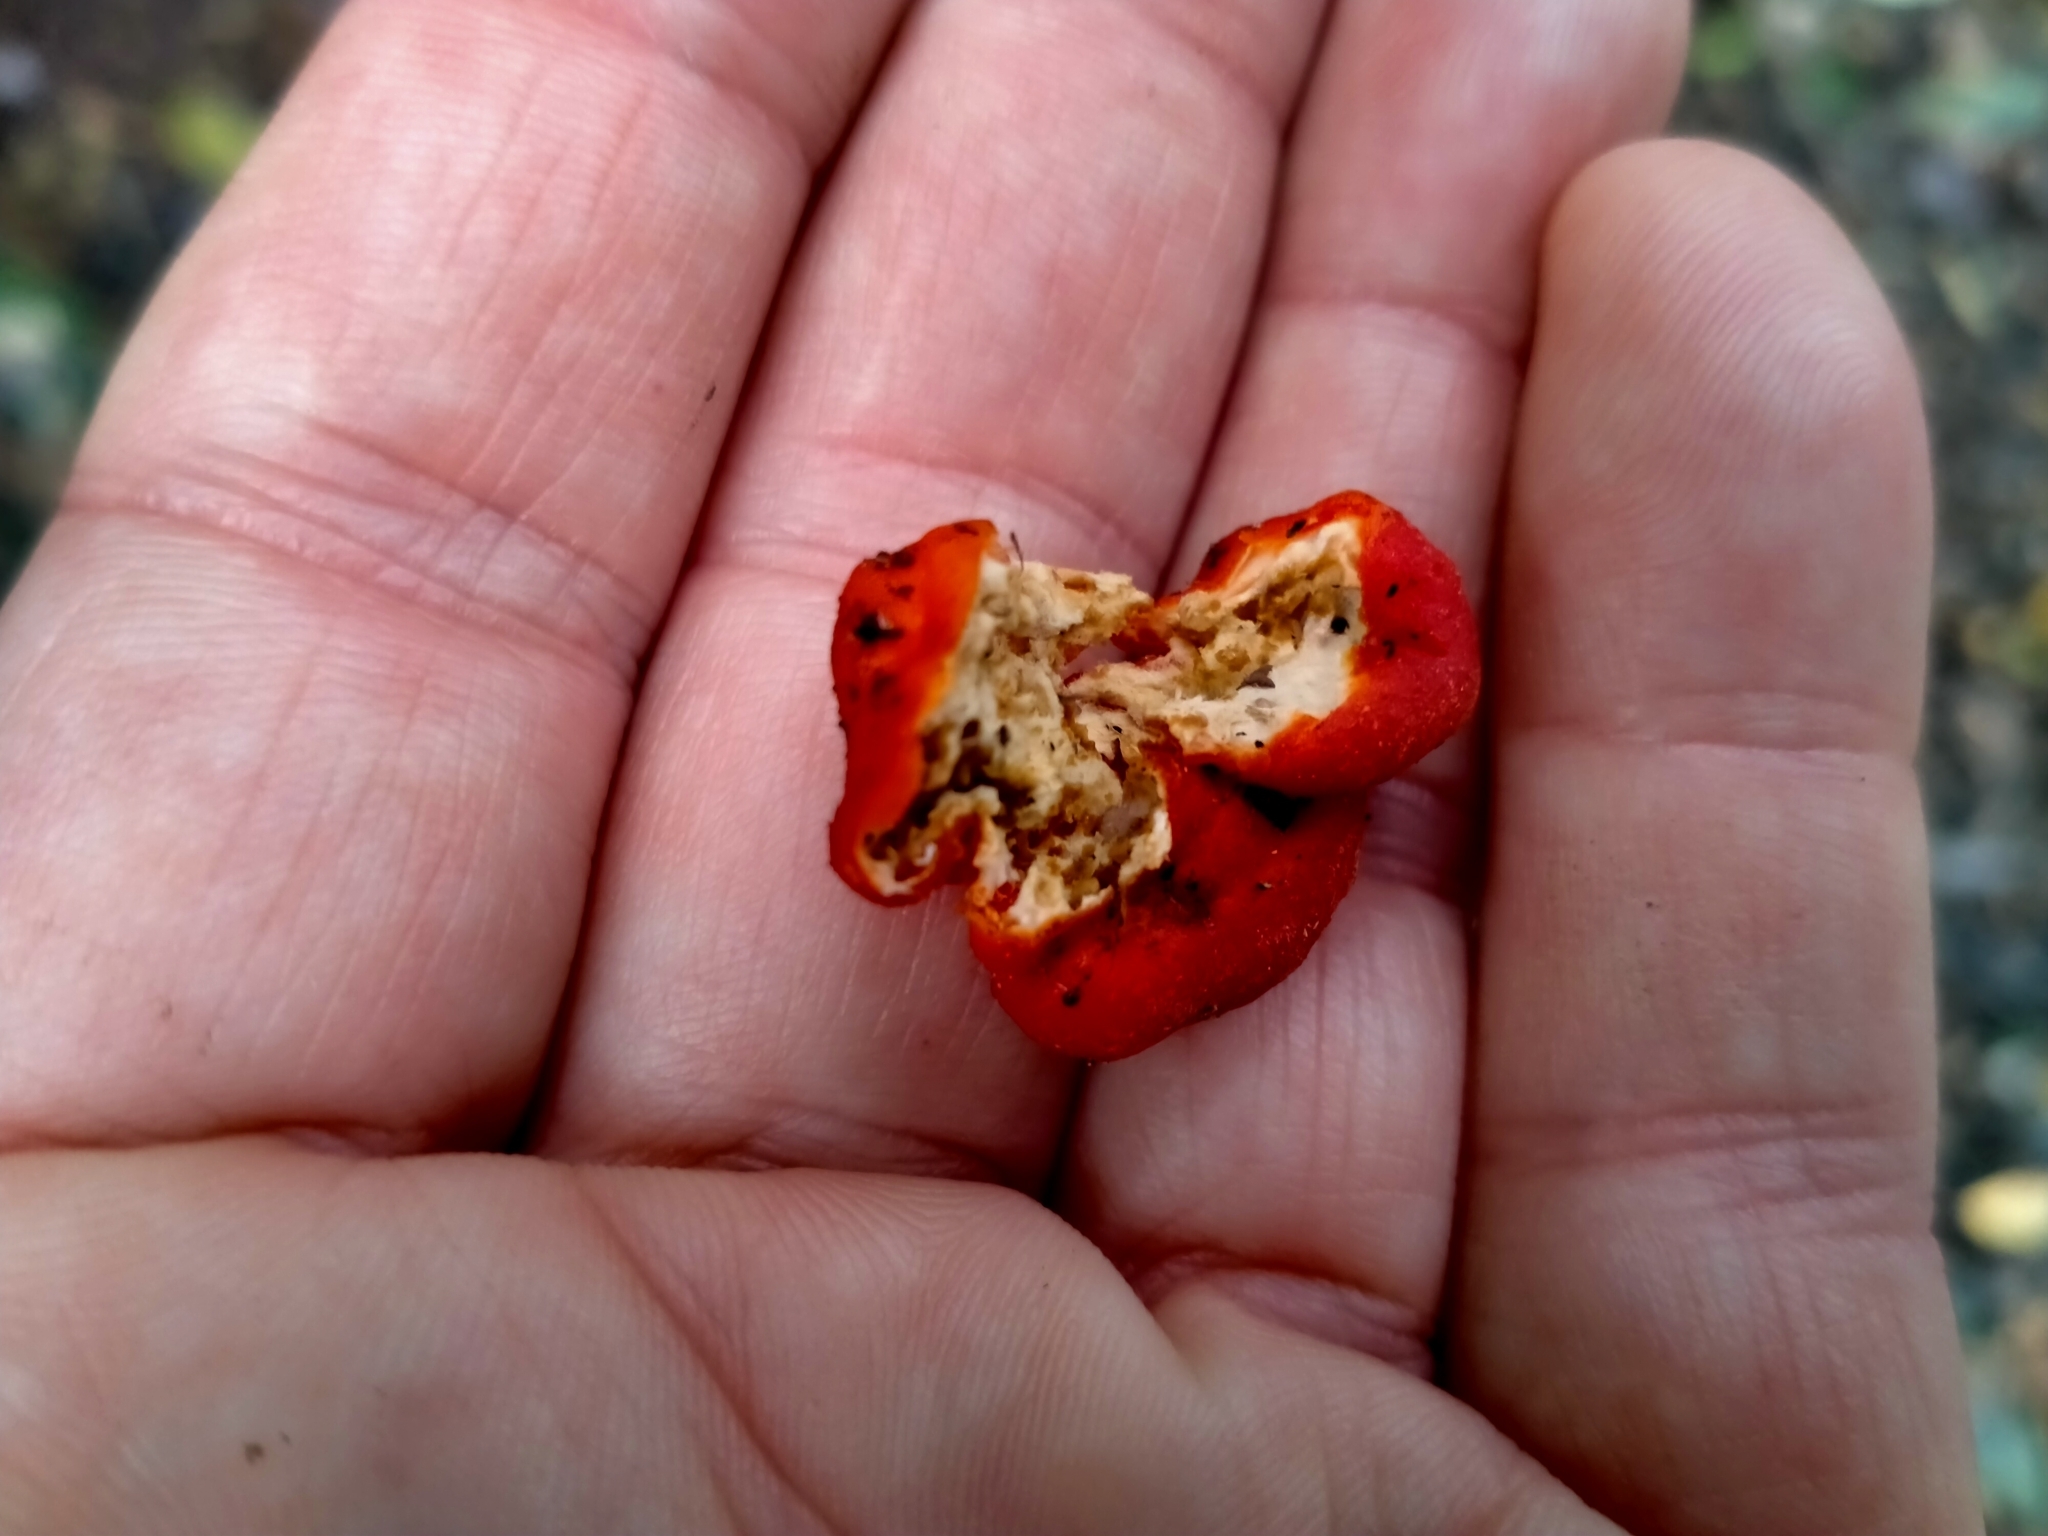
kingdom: Fungi
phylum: Ascomycota
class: Pezizomycetes
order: Pezizales
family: Pyronemataceae
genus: Paurocotylis
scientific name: Paurocotylis pila
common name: Scarlet berry truffle
